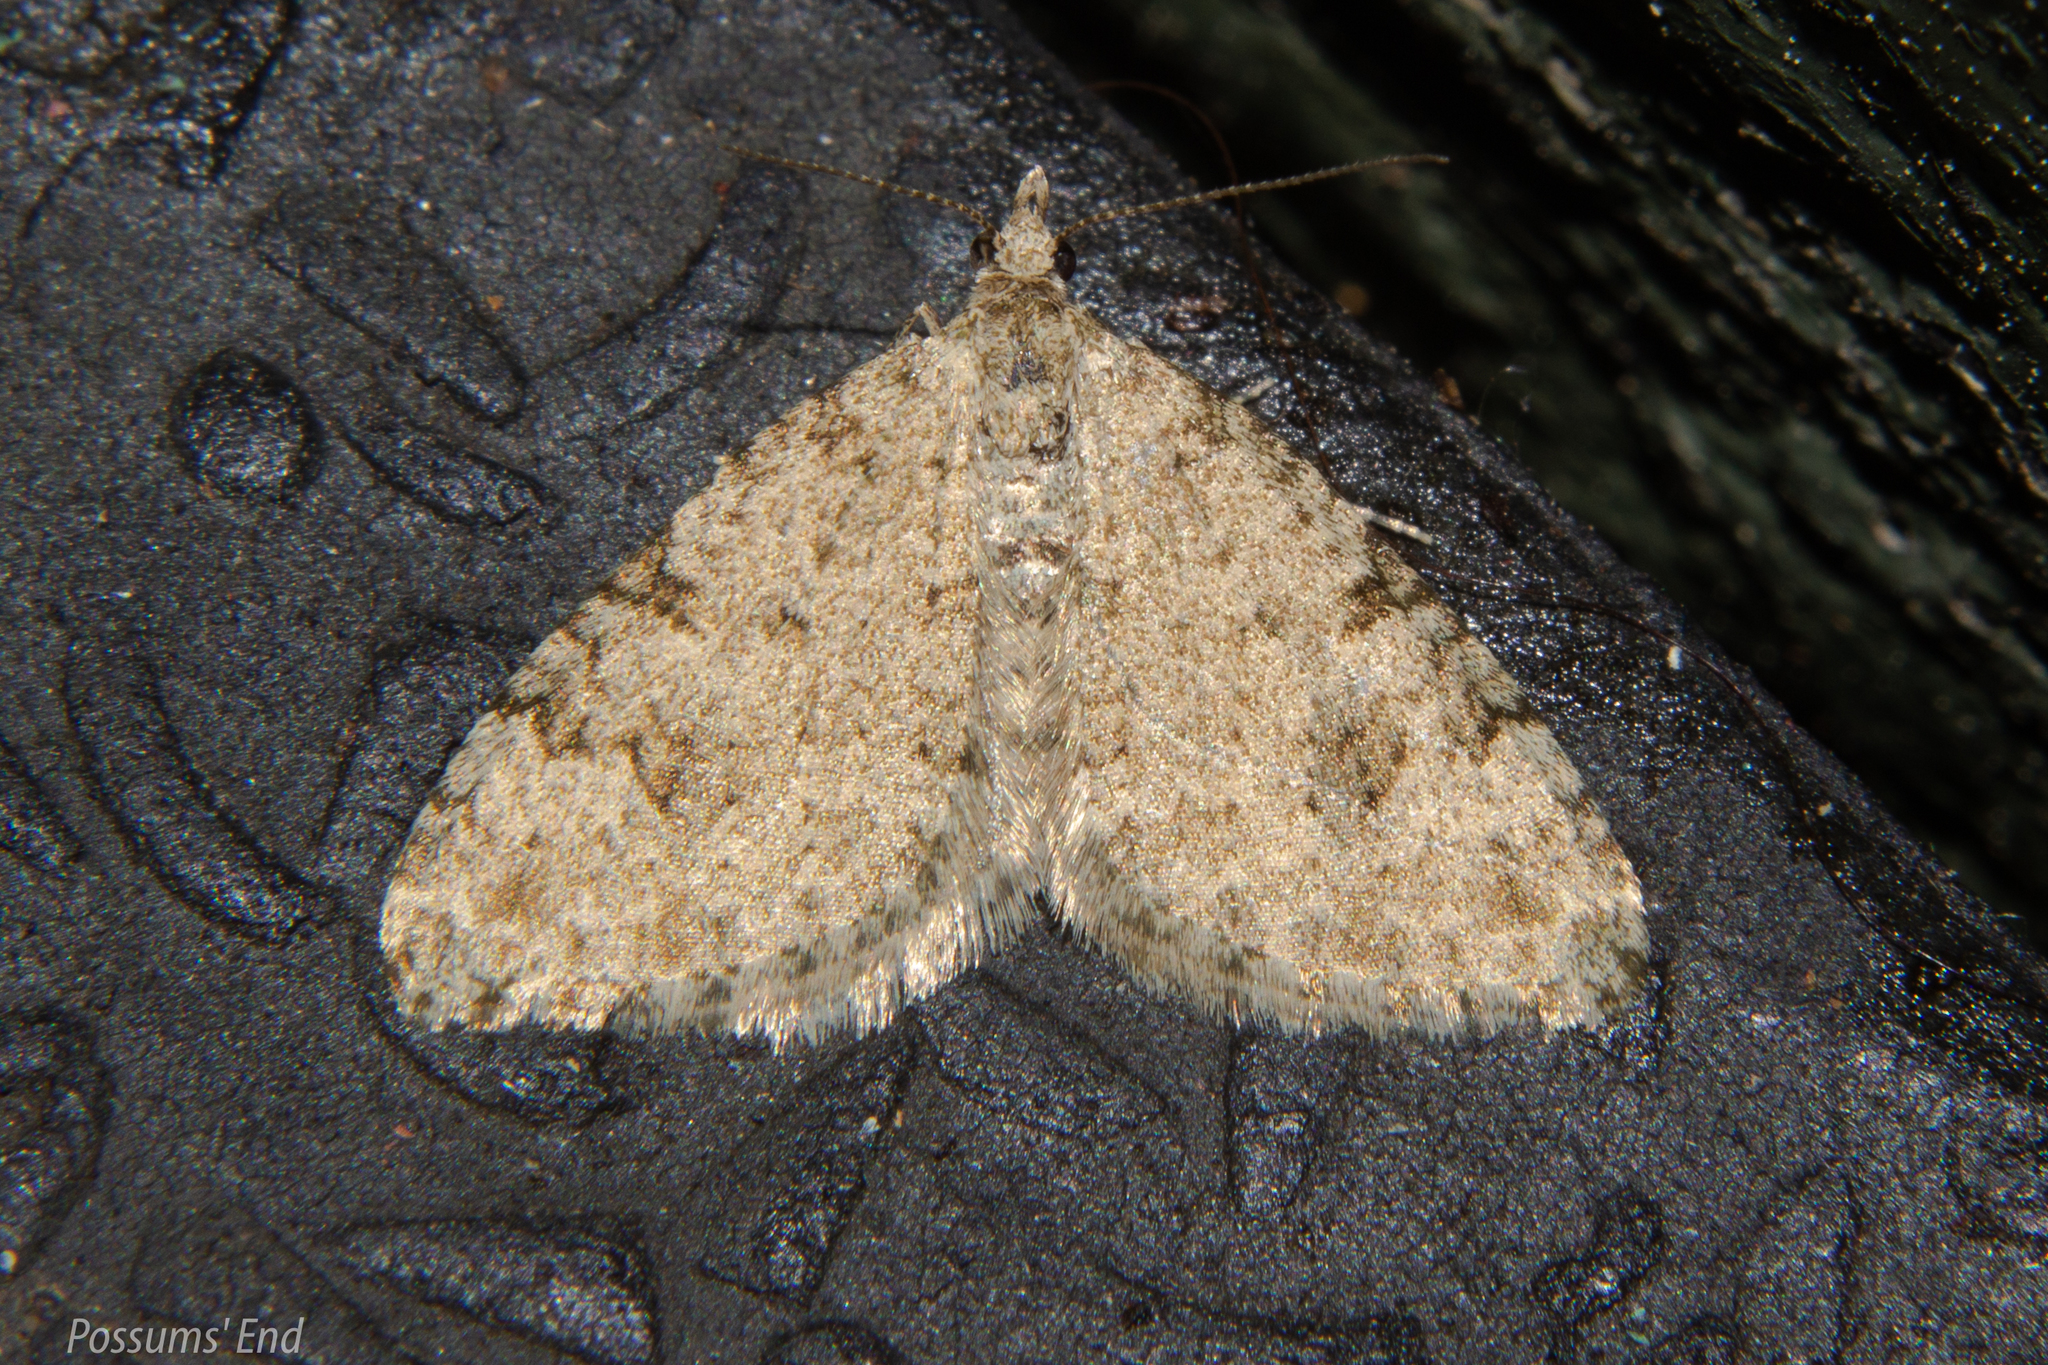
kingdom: Animalia
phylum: Arthropoda
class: Insecta
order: Lepidoptera
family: Geometridae
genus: Helastia
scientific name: Helastia cinerearia
